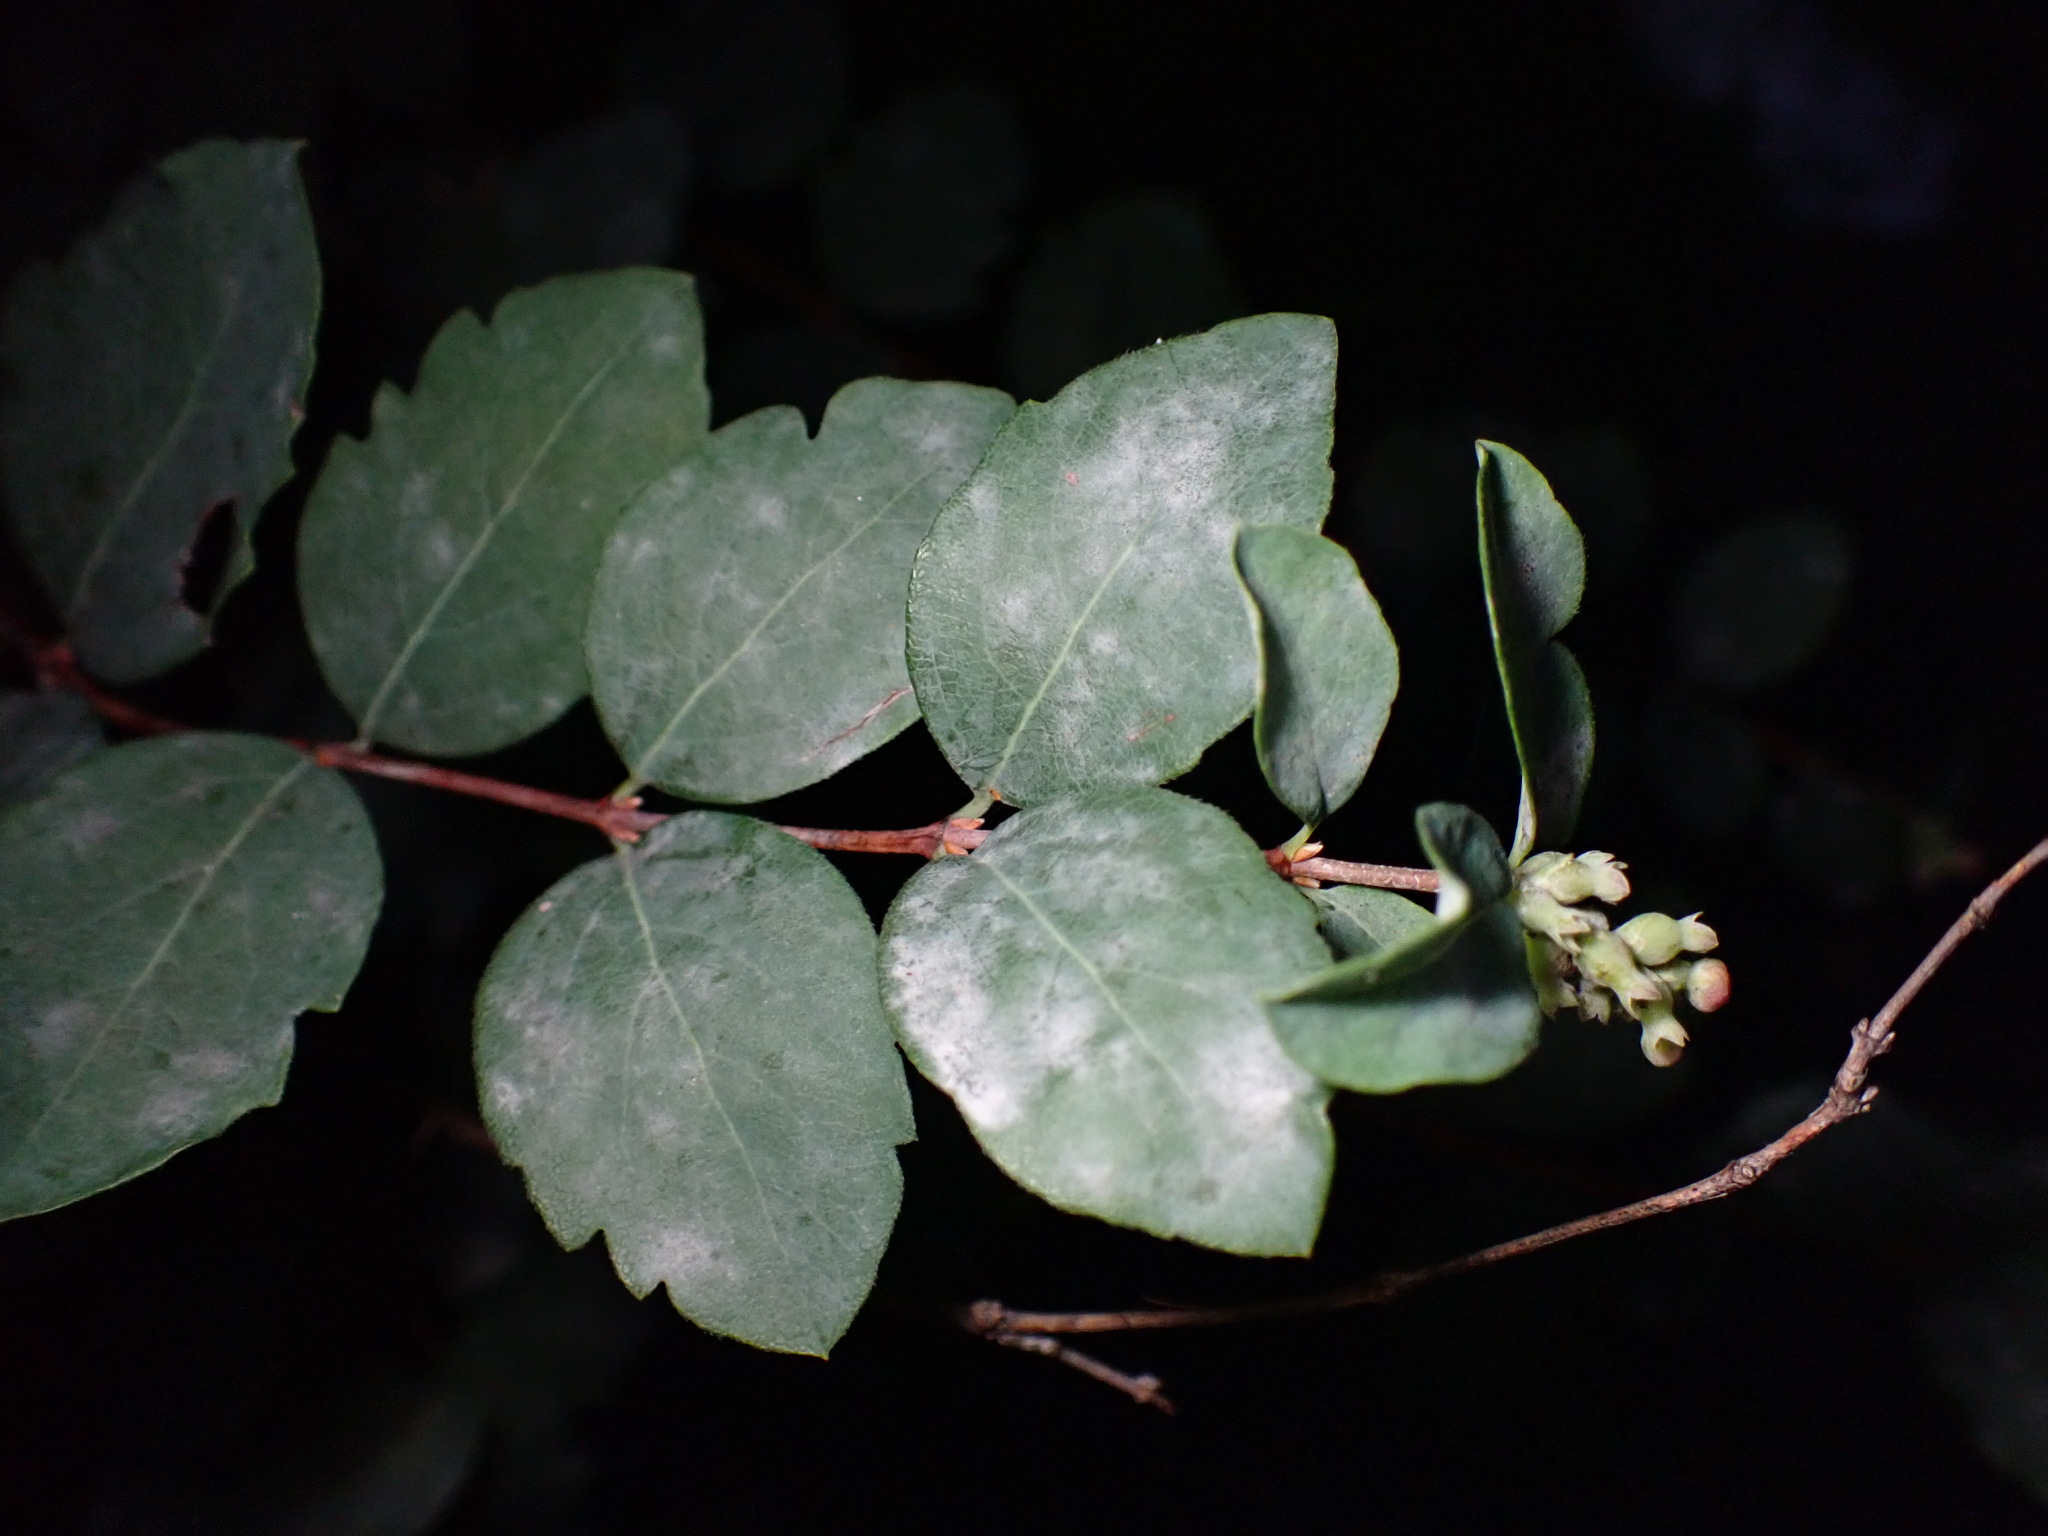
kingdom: Plantae
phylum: Tracheophyta
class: Magnoliopsida
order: Dipsacales
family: Caprifoliaceae
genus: Symphoricarpos
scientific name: Symphoricarpos albus
